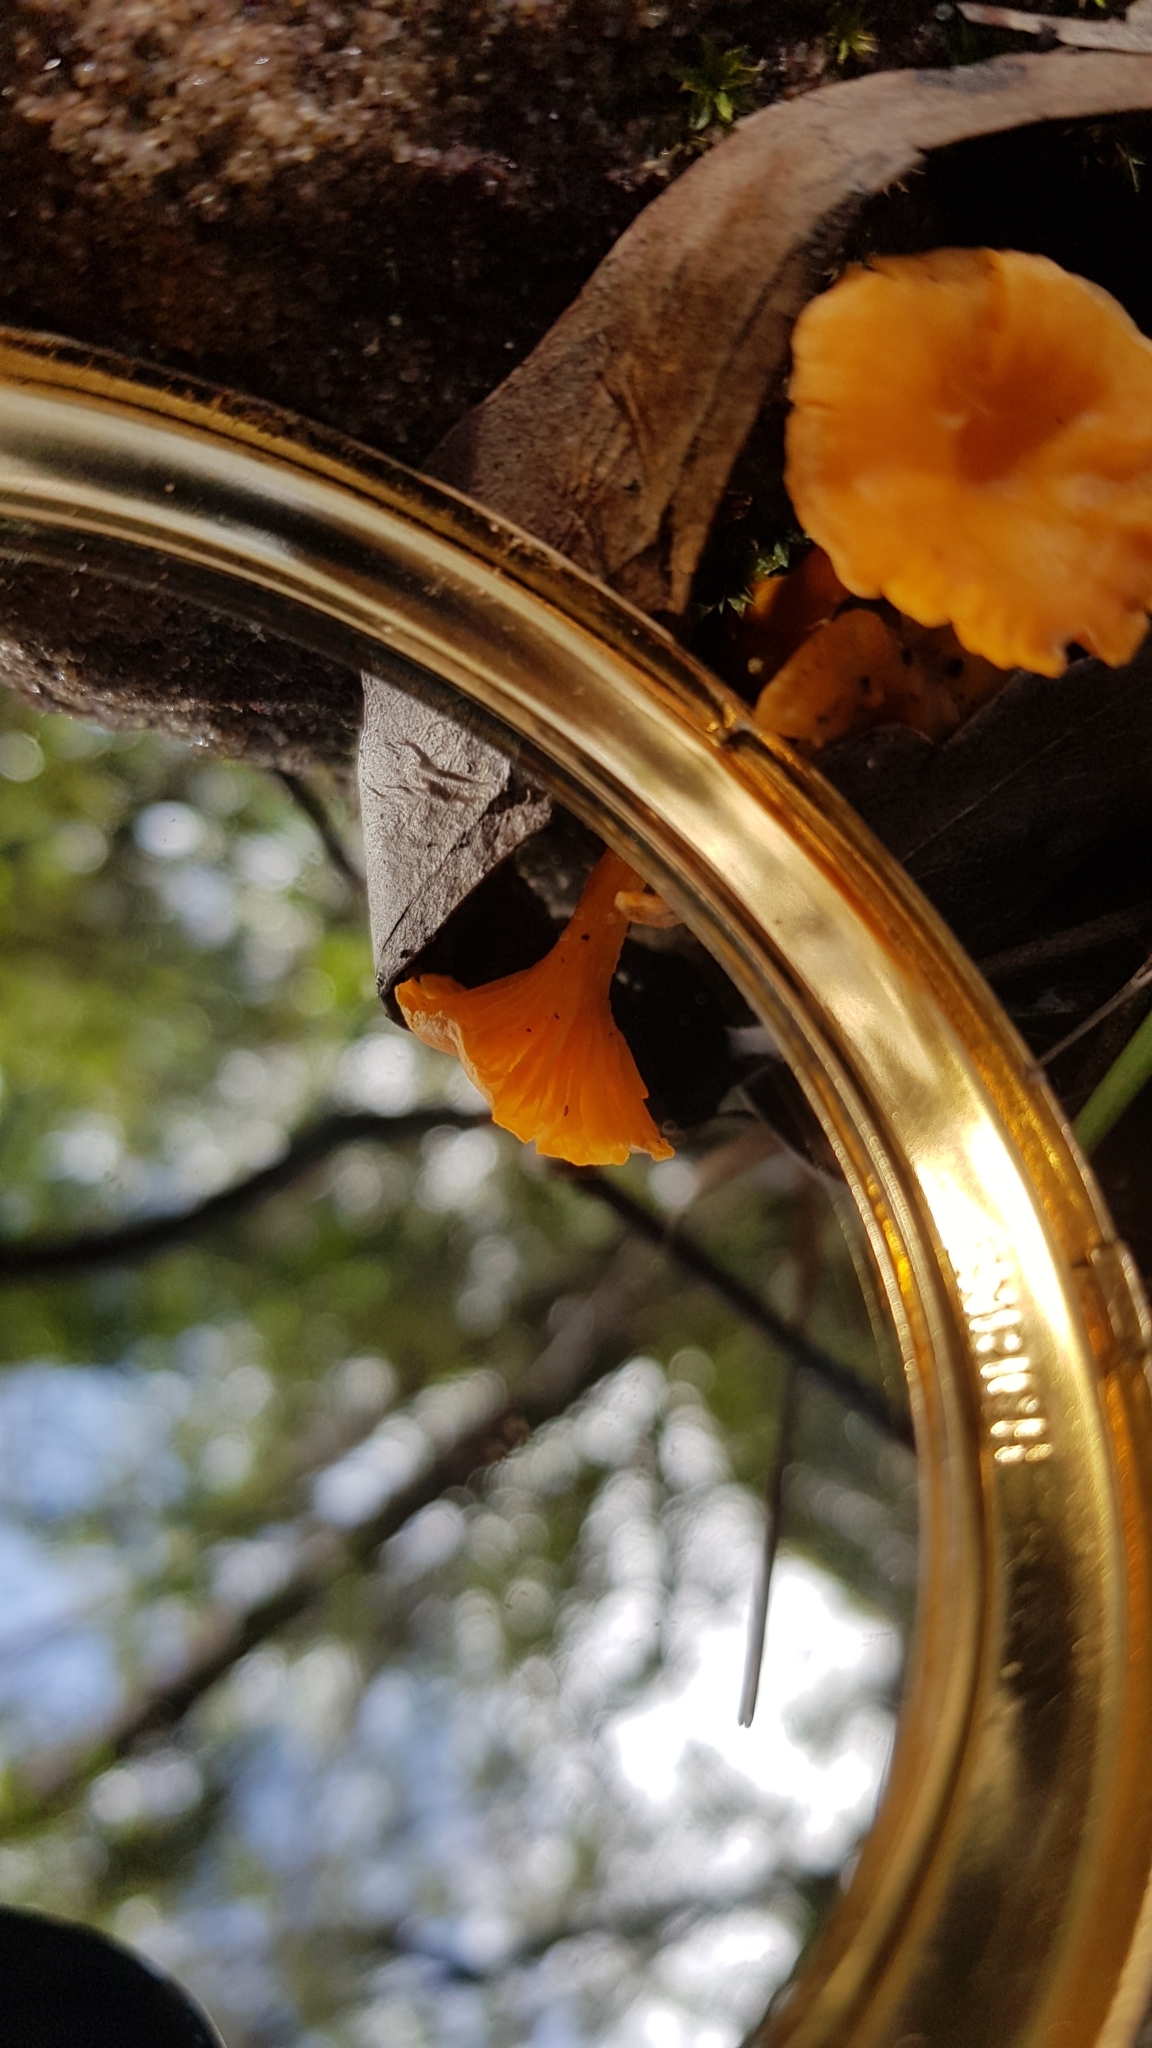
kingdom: Fungi
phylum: Basidiomycota
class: Agaricomycetes
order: Cantharellales
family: Hydnaceae
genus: Cantharellus
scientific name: Cantharellus
